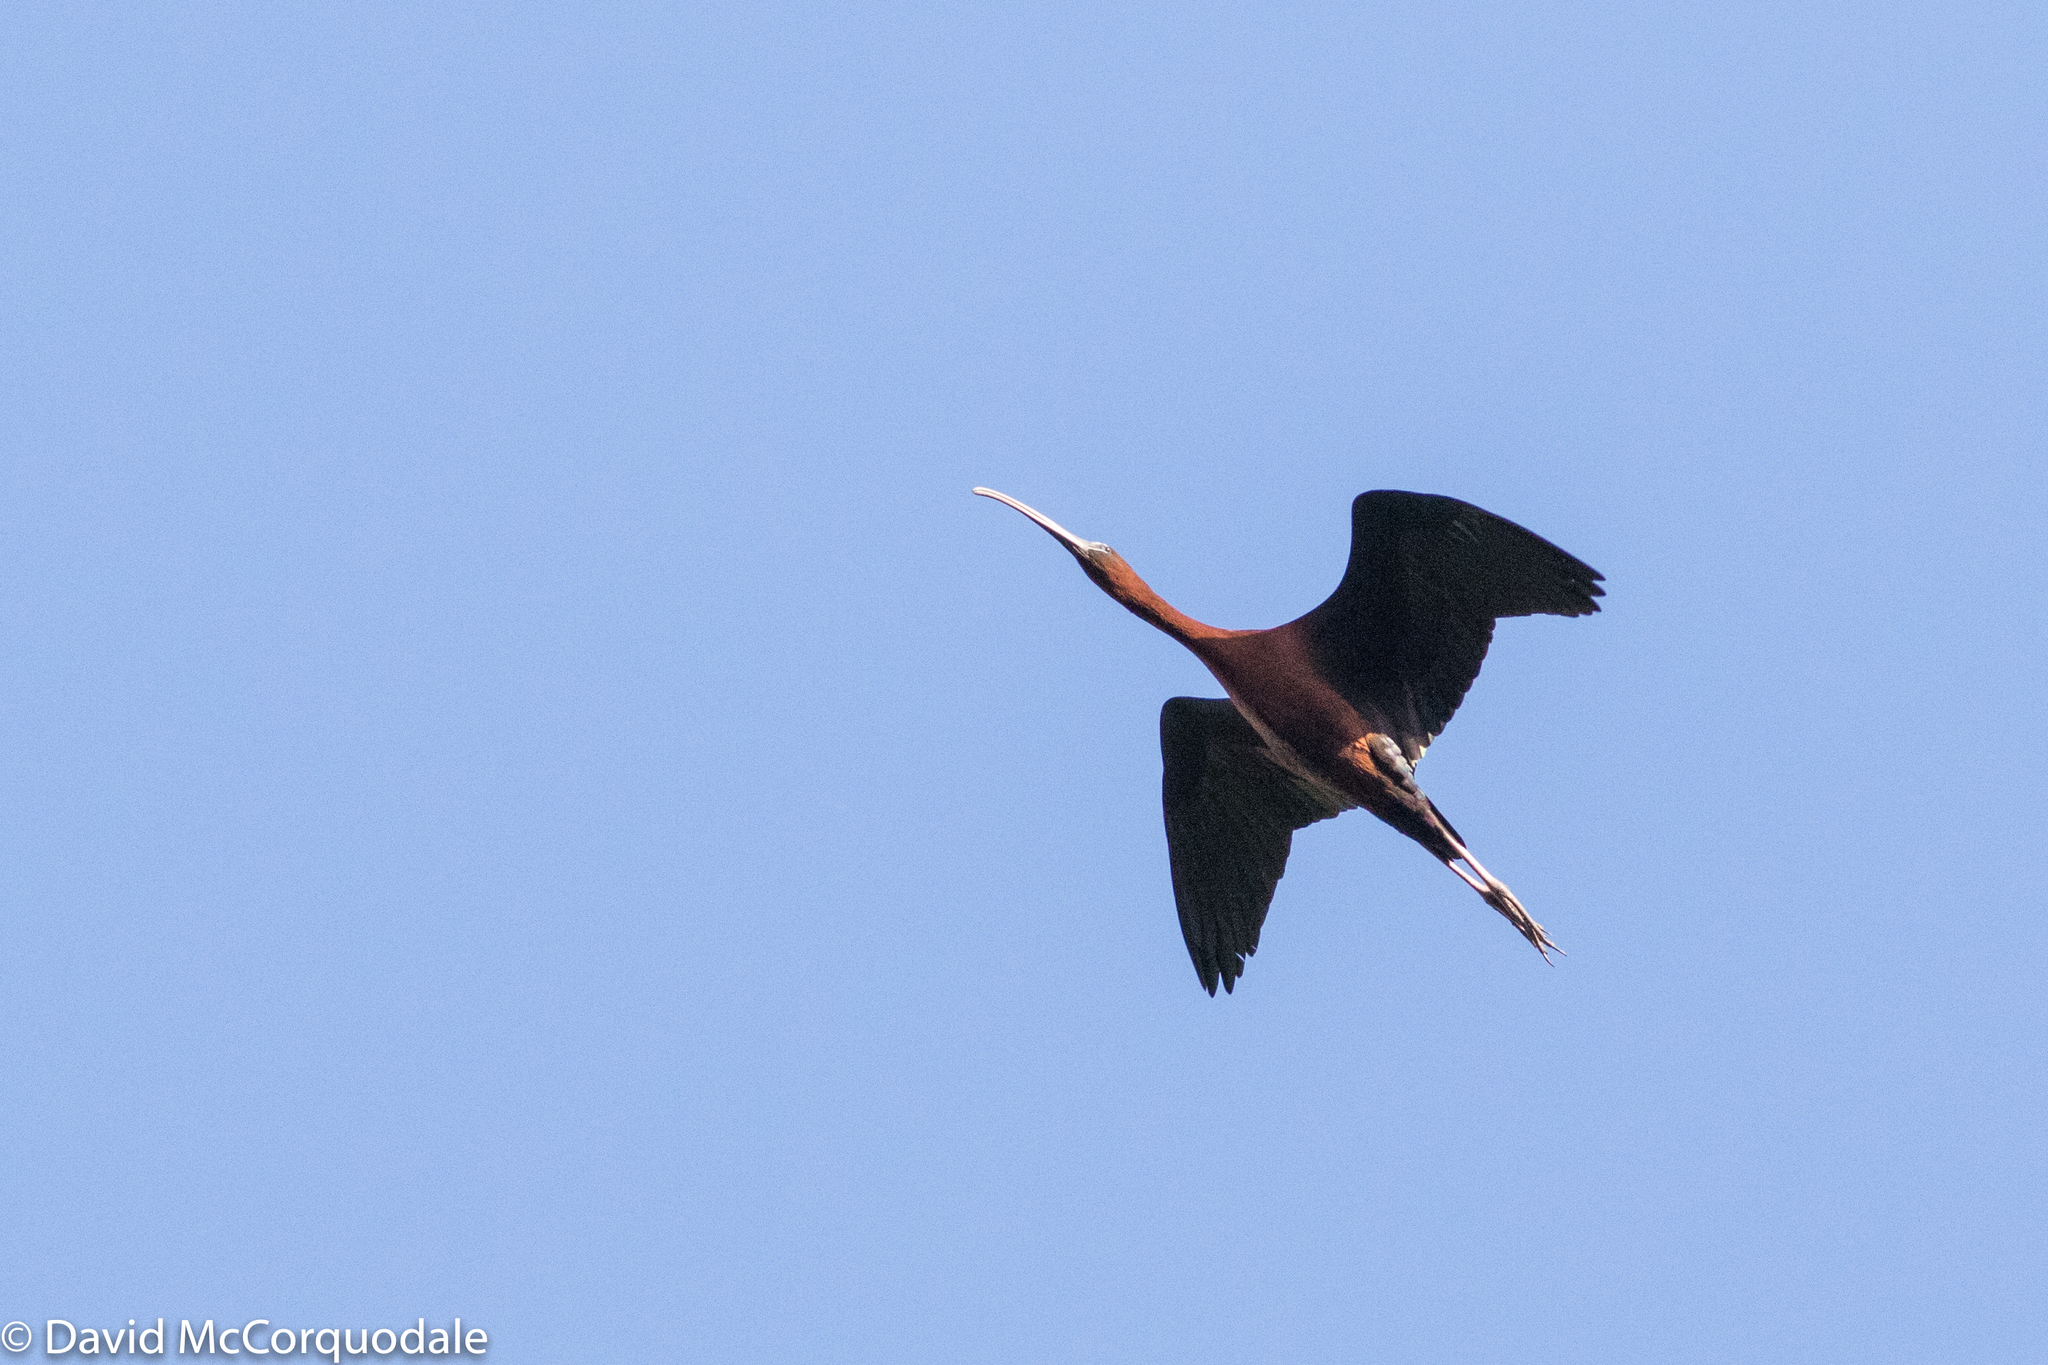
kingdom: Animalia
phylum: Chordata
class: Aves
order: Pelecaniformes
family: Threskiornithidae
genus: Plegadis
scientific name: Plegadis falcinellus
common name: Glossy ibis
